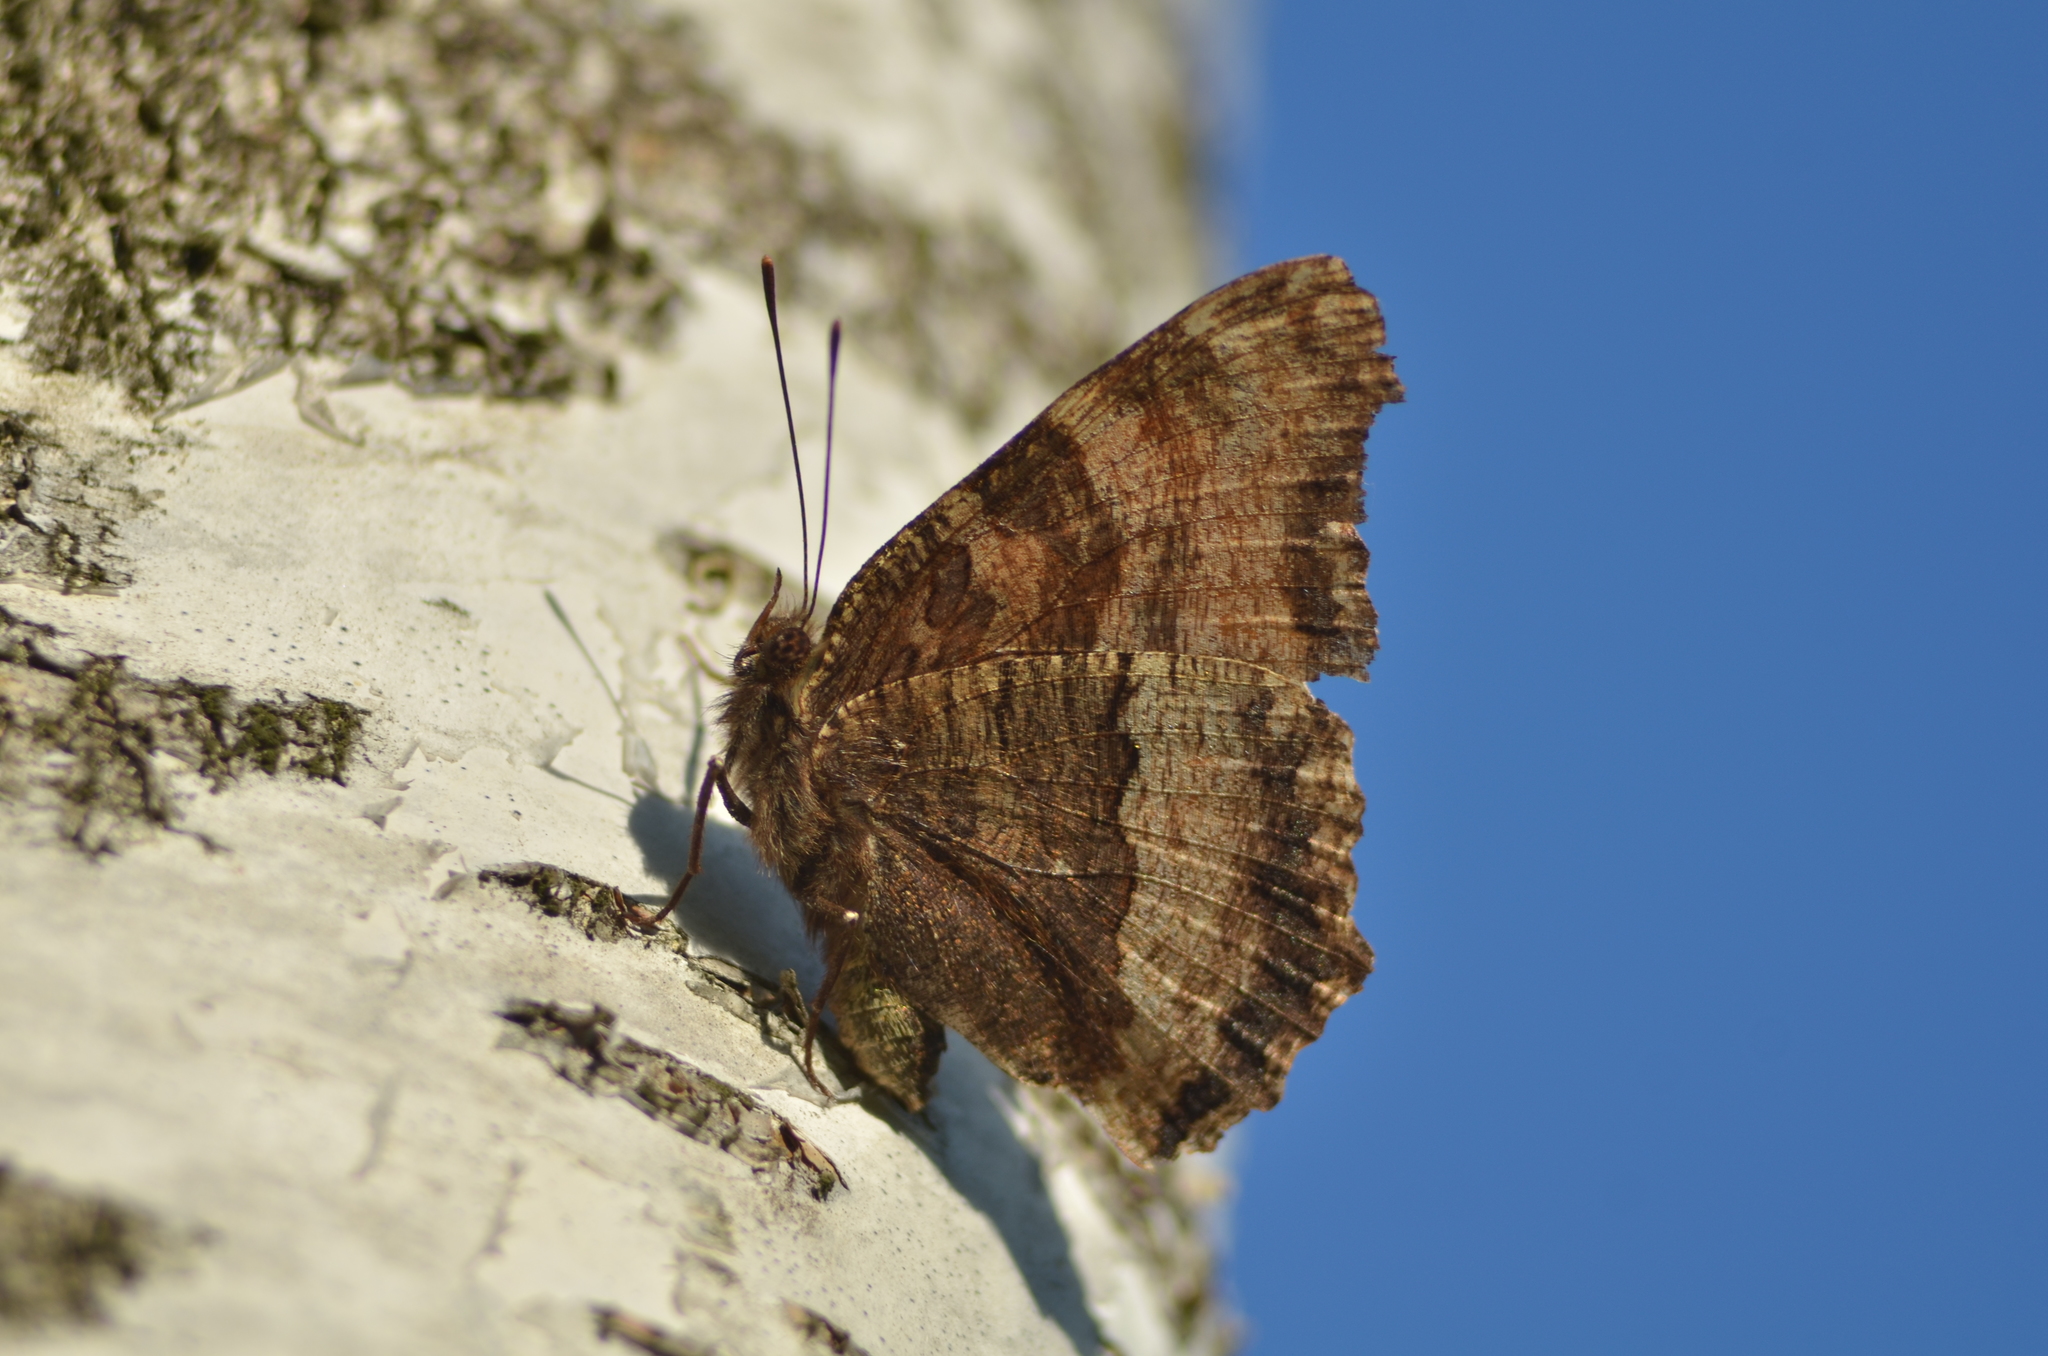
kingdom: Animalia
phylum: Arthropoda
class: Insecta
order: Lepidoptera
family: Nymphalidae
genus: Nymphalis
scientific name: Nymphalis polychloros
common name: Large tortoiseshell
